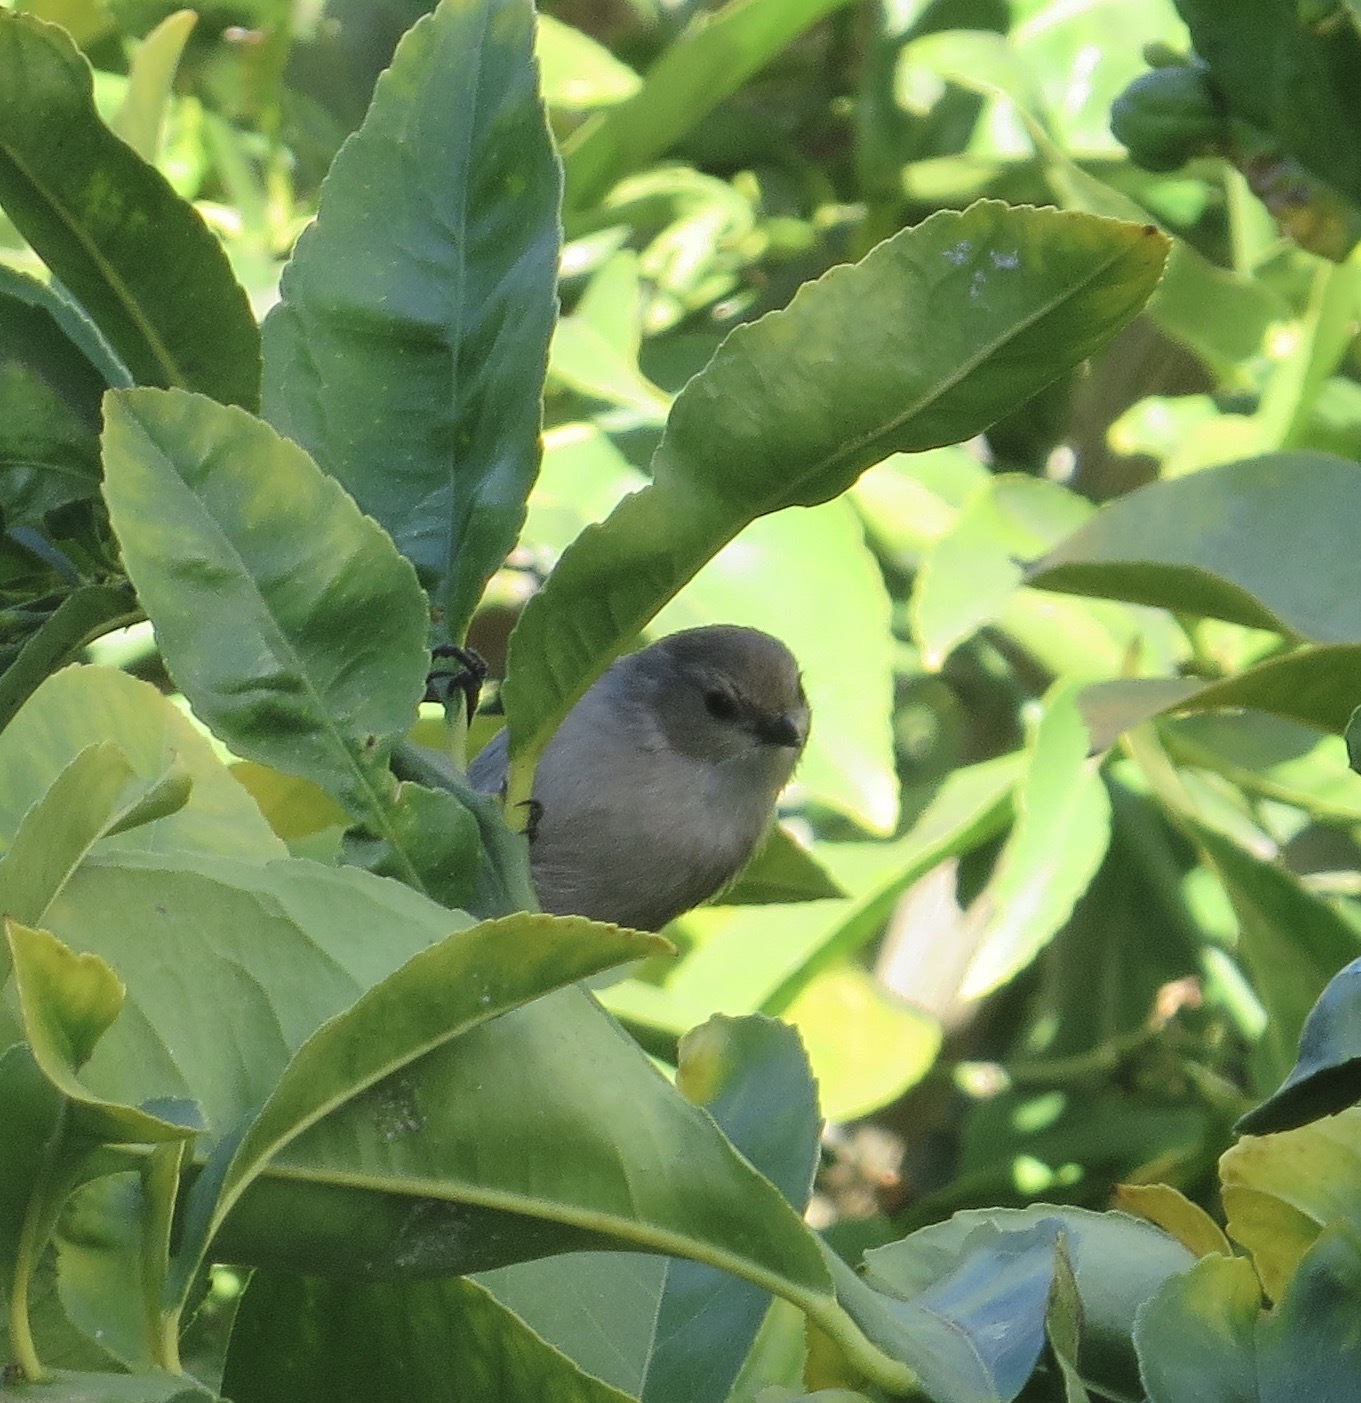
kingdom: Animalia
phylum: Chordata
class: Aves
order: Passeriformes
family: Aegithalidae
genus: Psaltriparus
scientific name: Psaltriparus minimus
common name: American bushtit
